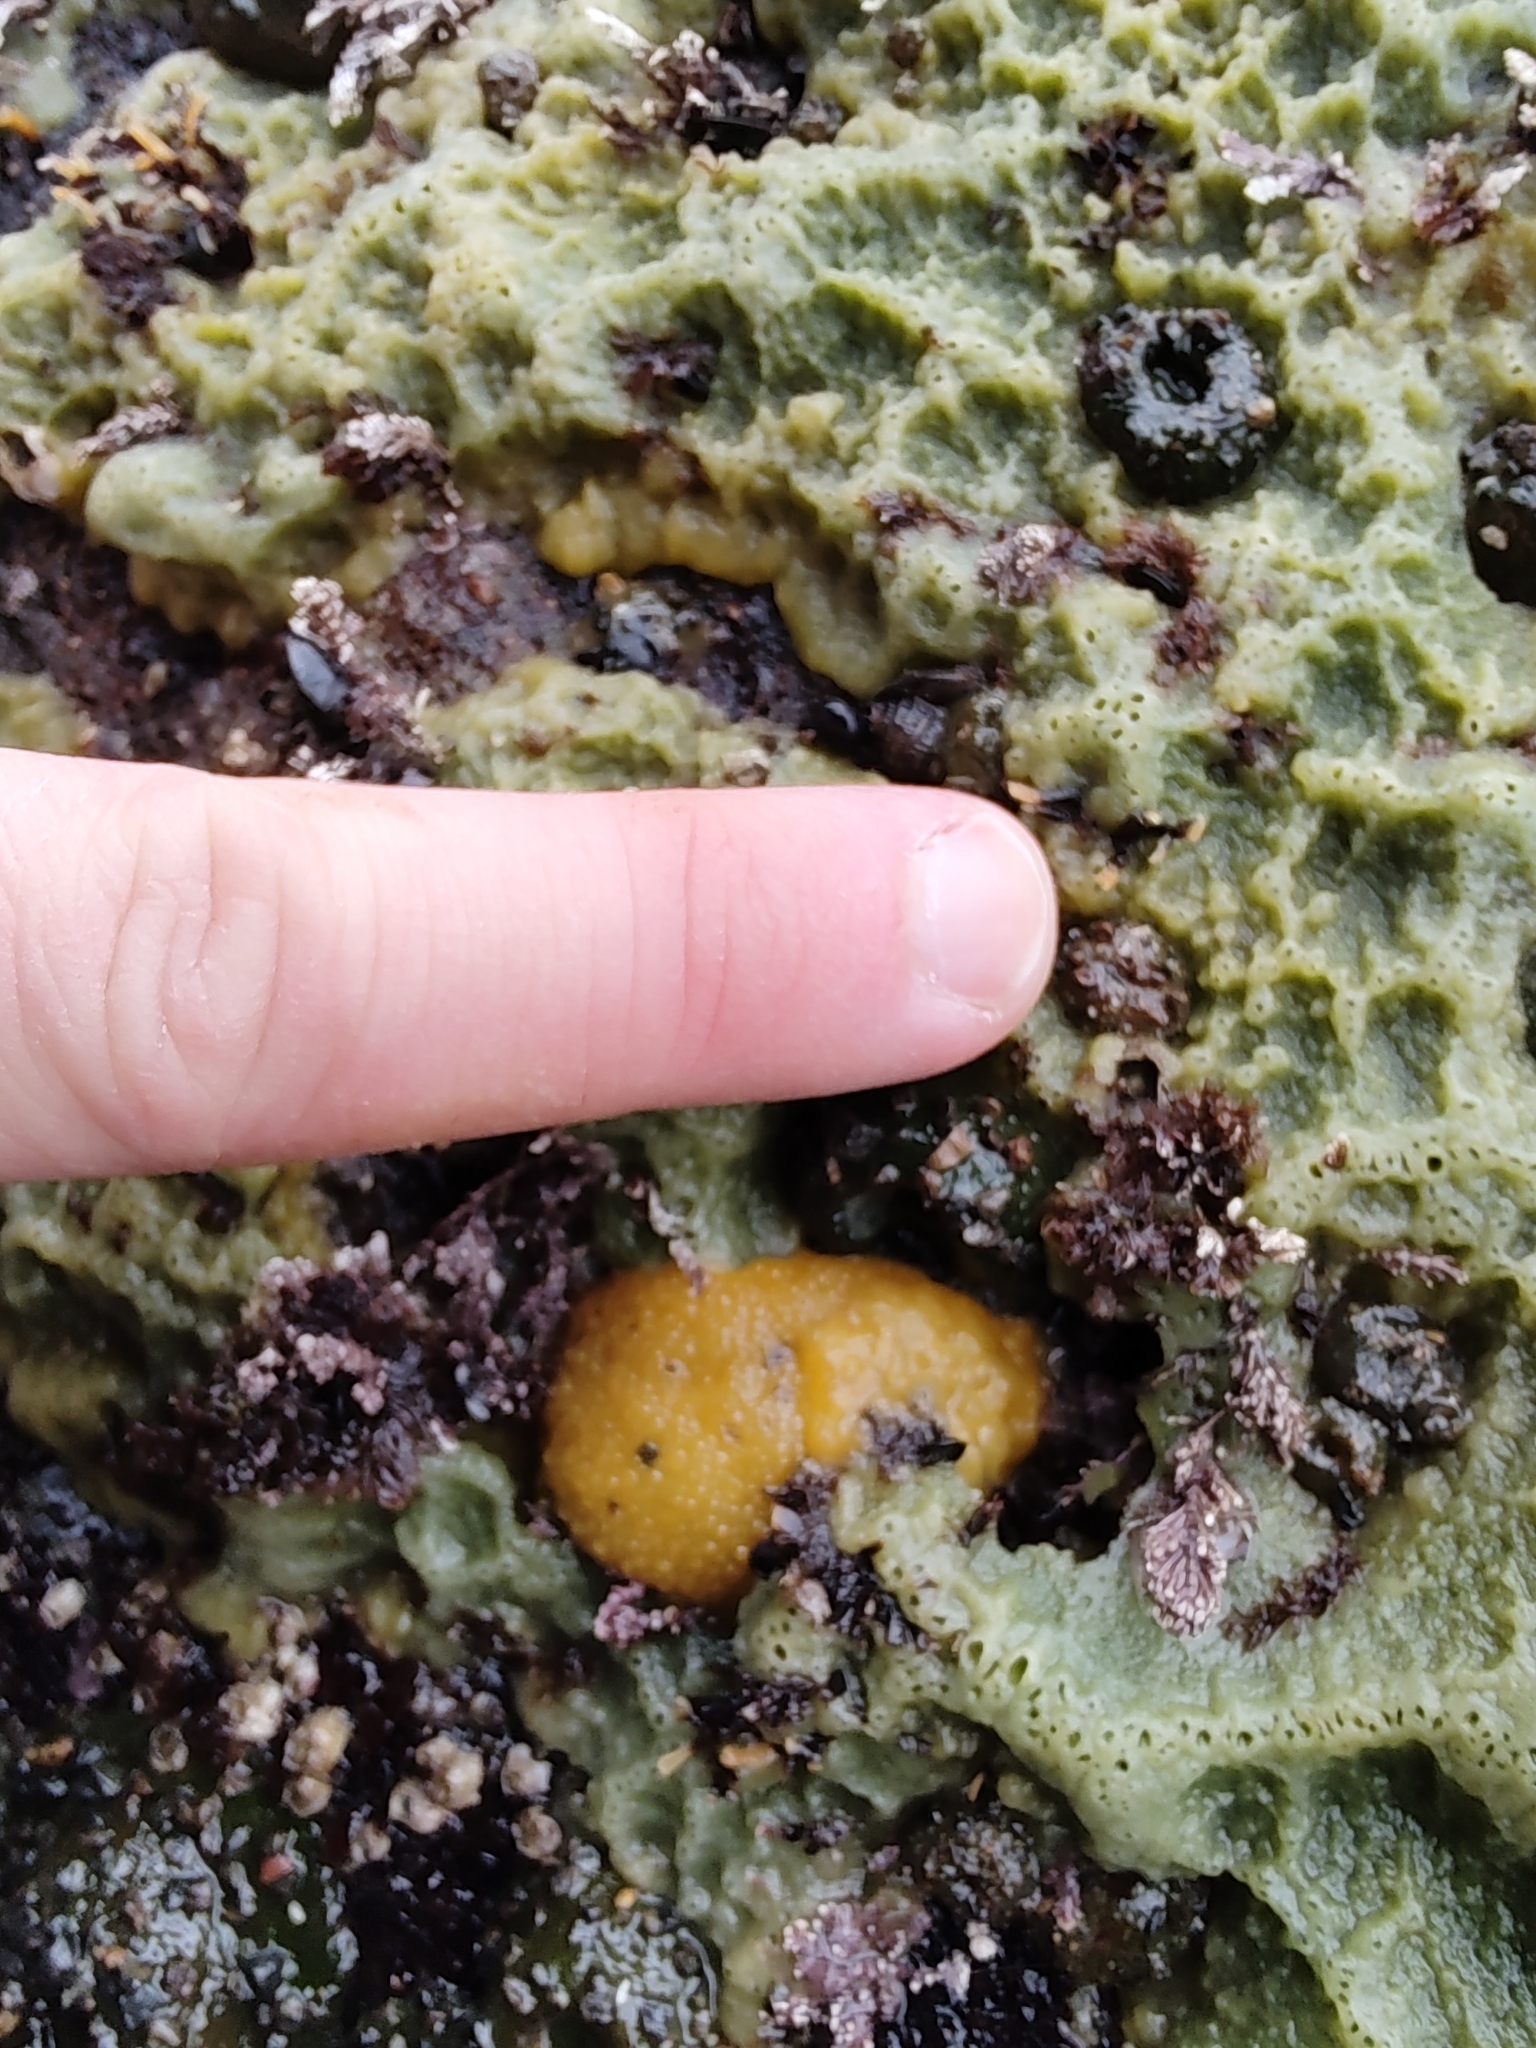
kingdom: Animalia
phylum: Mollusca
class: Gastropoda
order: Nudibranchia
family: Dorididae
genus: Doris
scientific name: Doris montereyensis
